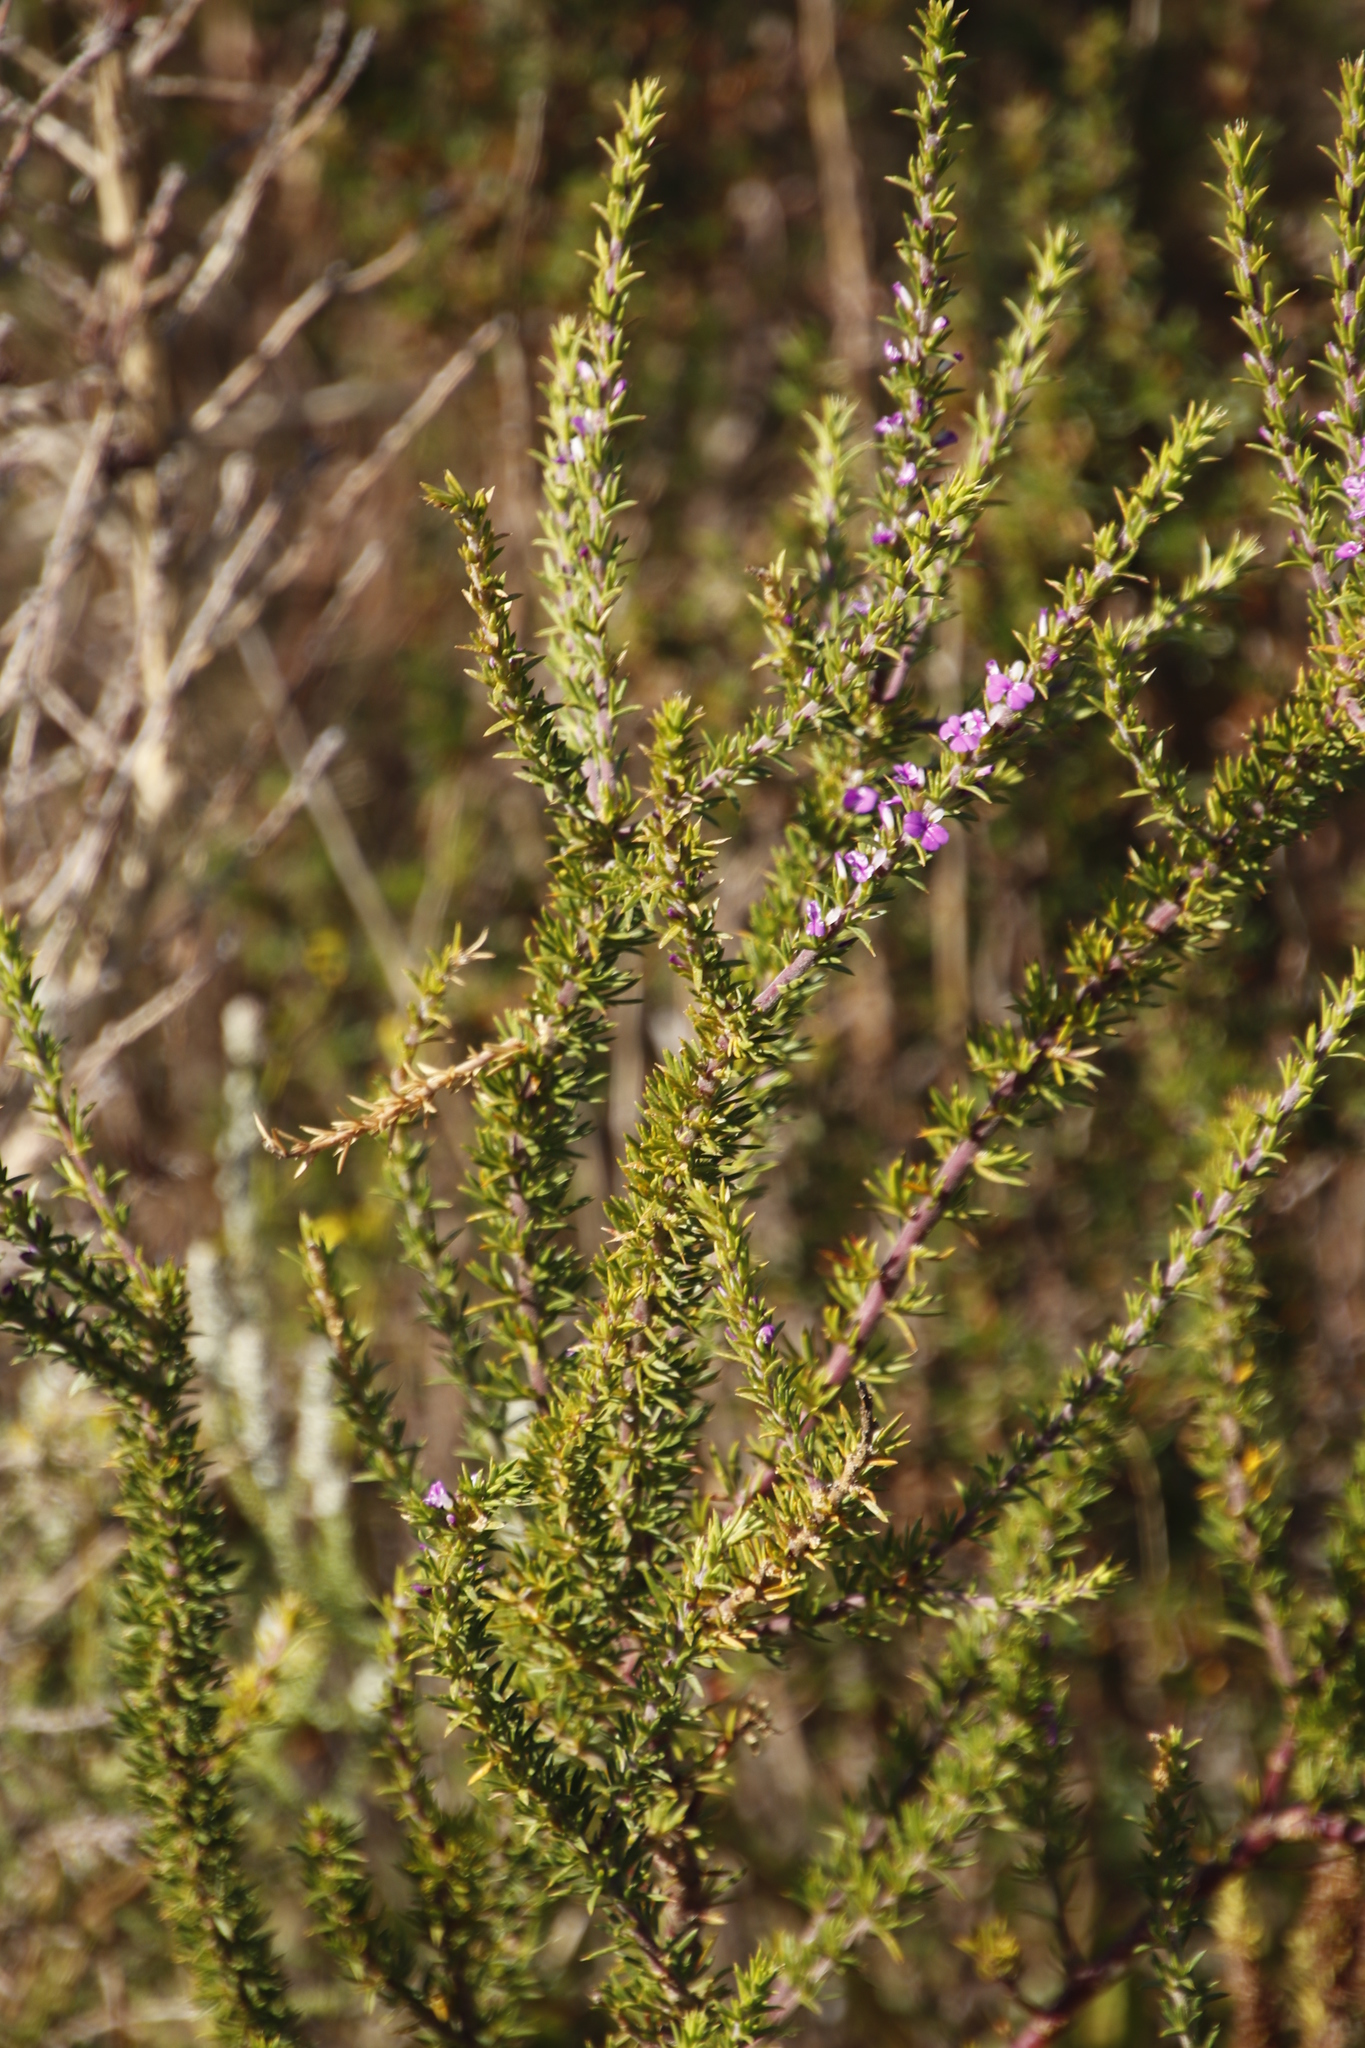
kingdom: Plantae
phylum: Tracheophyta
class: Magnoliopsida
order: Fabales
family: Polygalaceae
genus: Muraltia
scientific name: Muraltia heisteria
